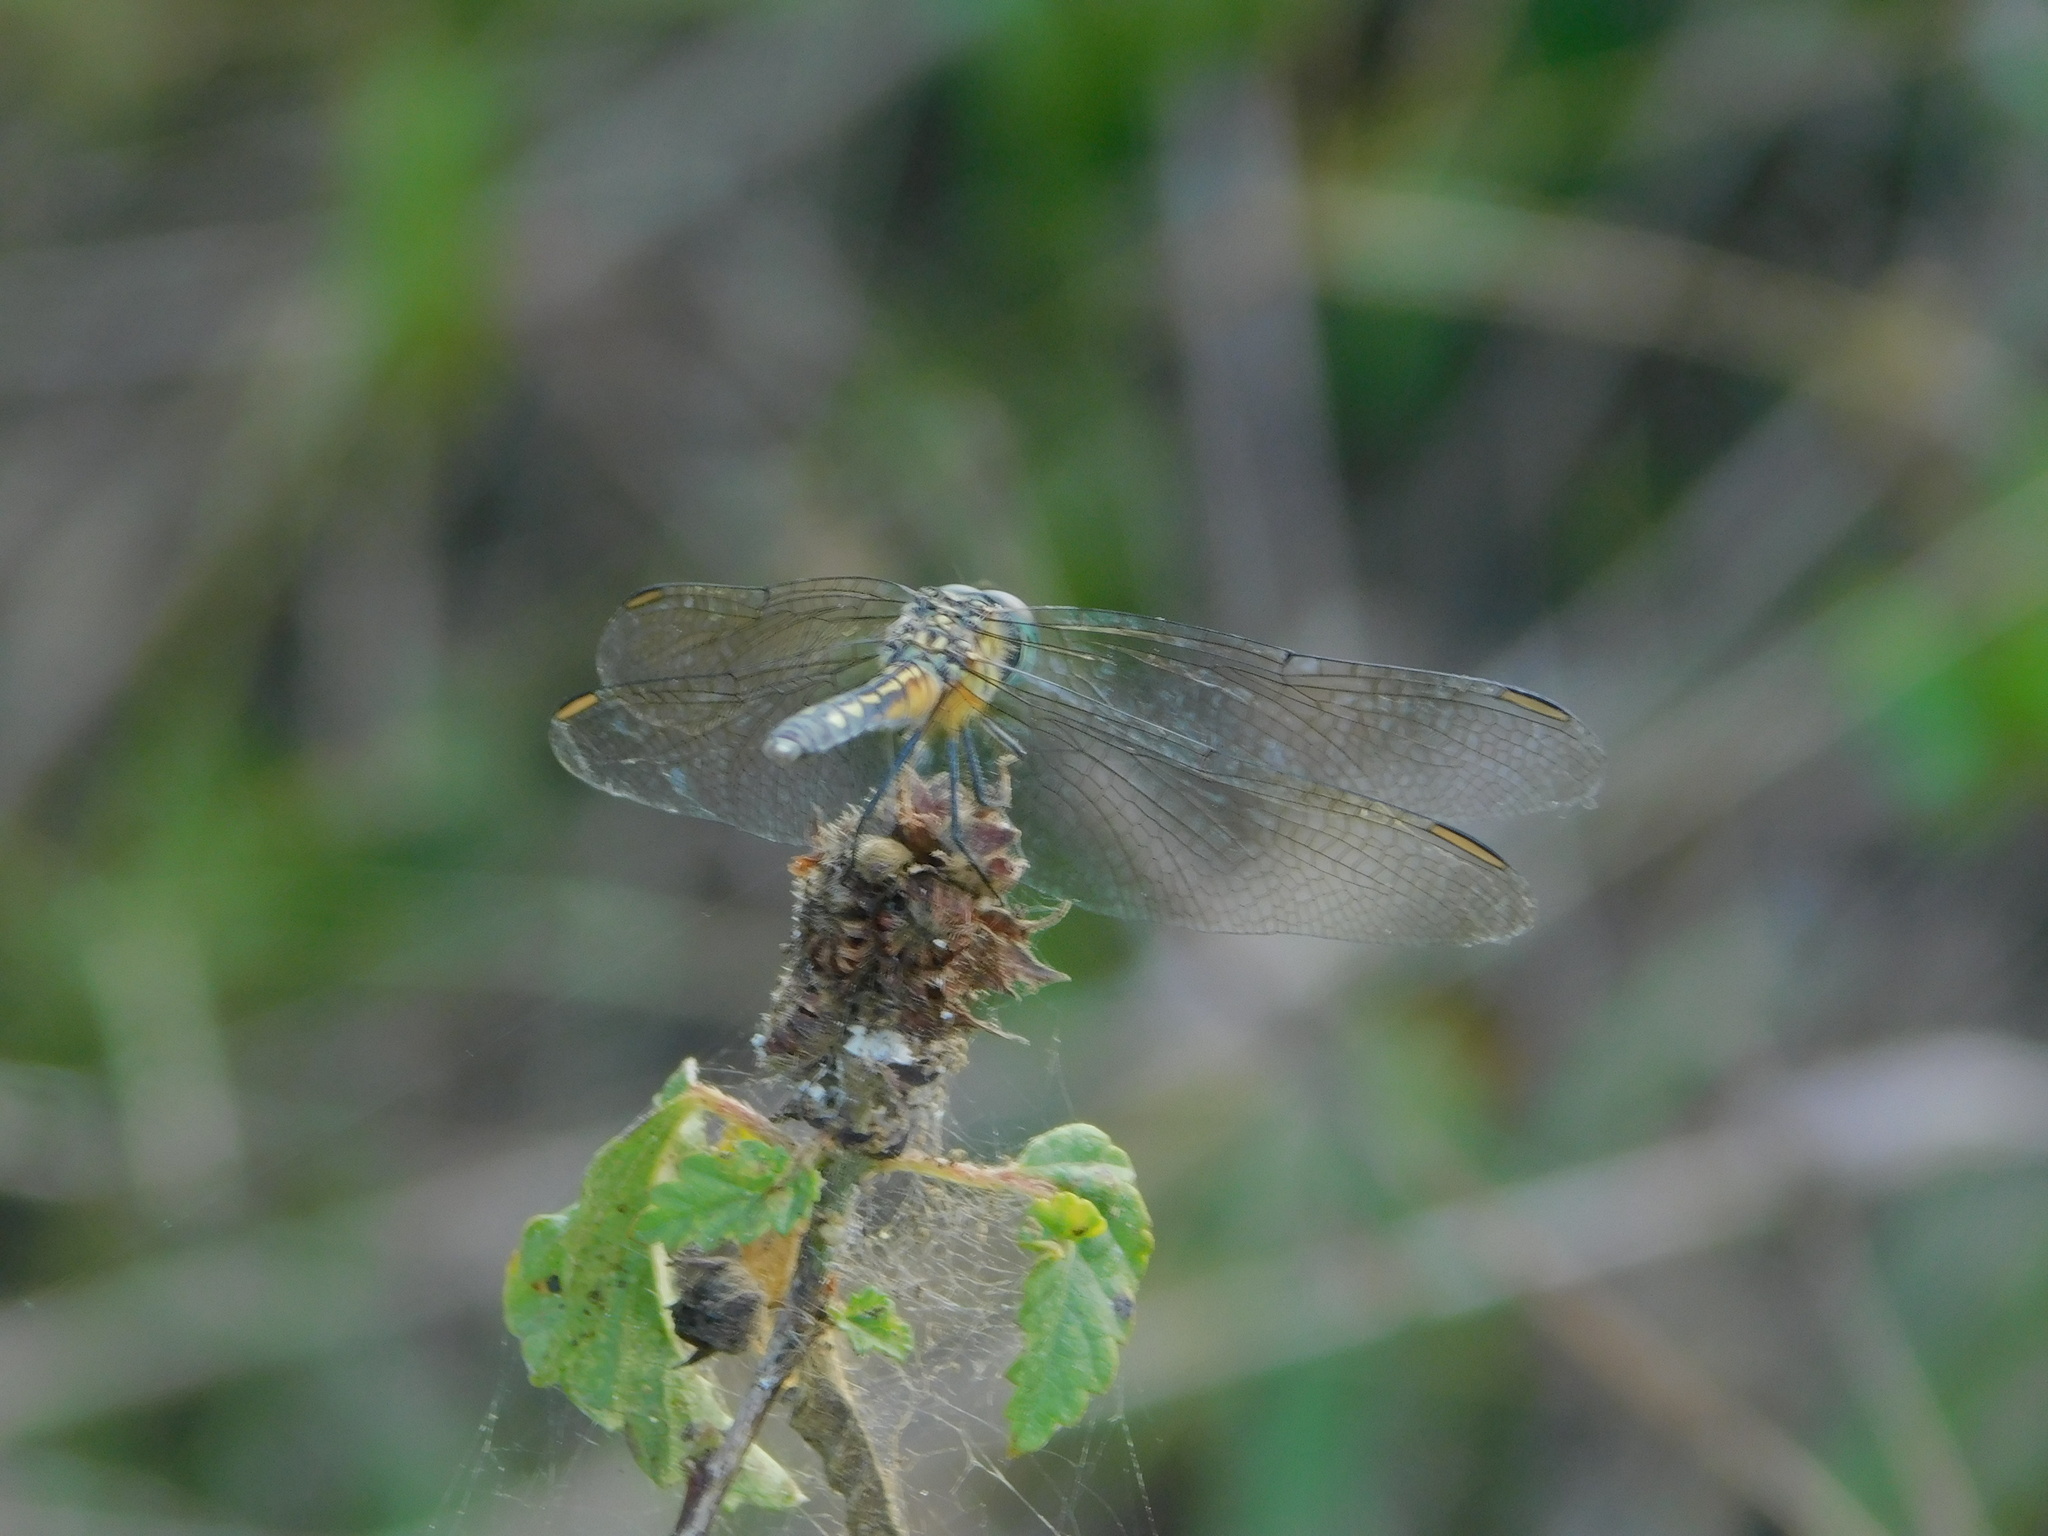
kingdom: Animalia
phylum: Arthropoda
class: Insecta
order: Odonata
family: Libellulidae
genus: Pachydiplax
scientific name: Pachydiplax longipennis
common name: Blue dasher
